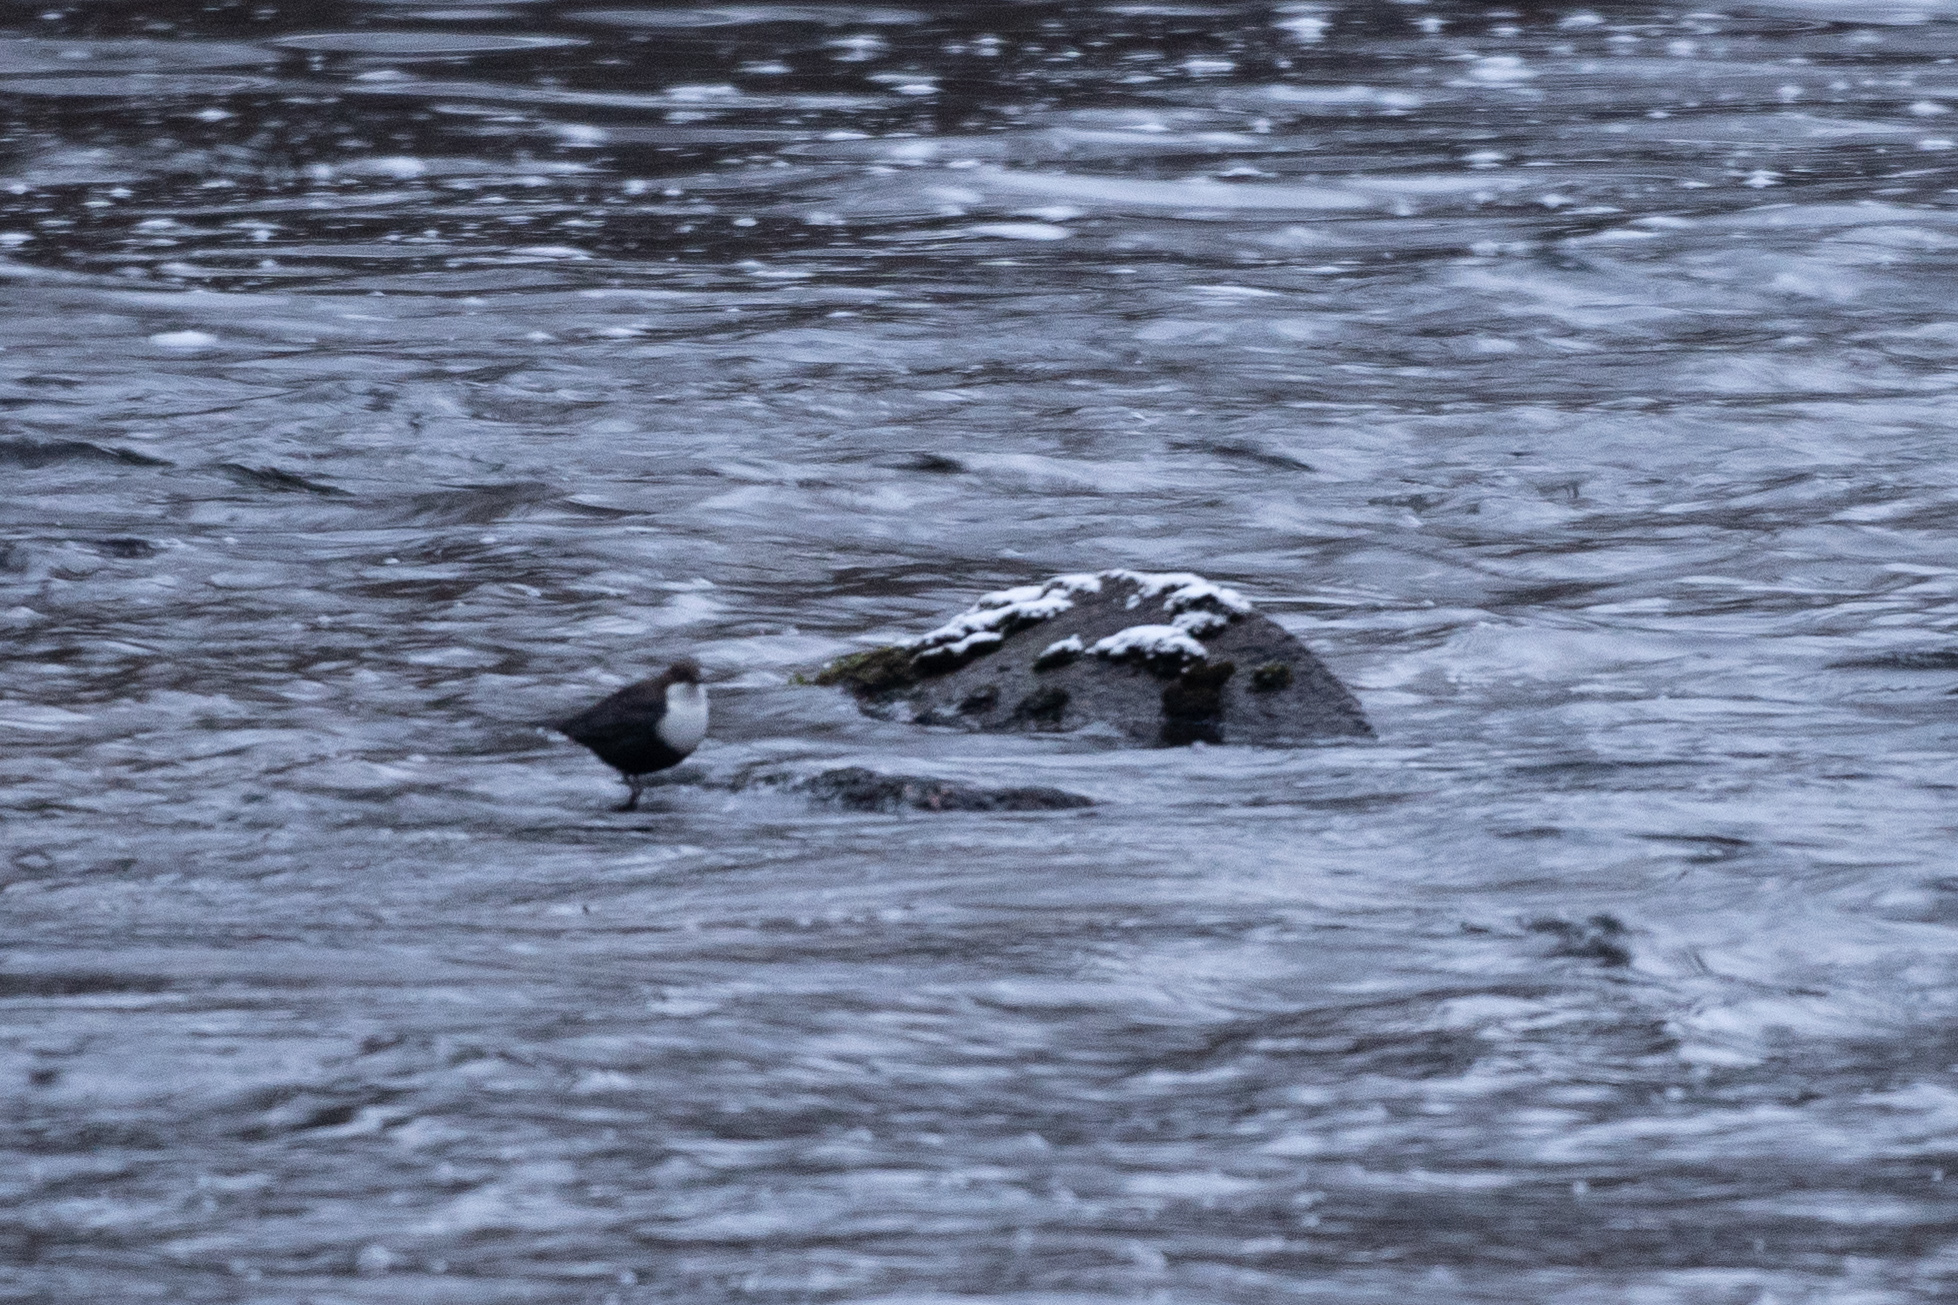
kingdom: Animalia
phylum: Chordata
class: Aves
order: Passeriformes
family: Cinclidae
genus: Cinclus
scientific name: Cinclus cinclus
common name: White-throated dipper
